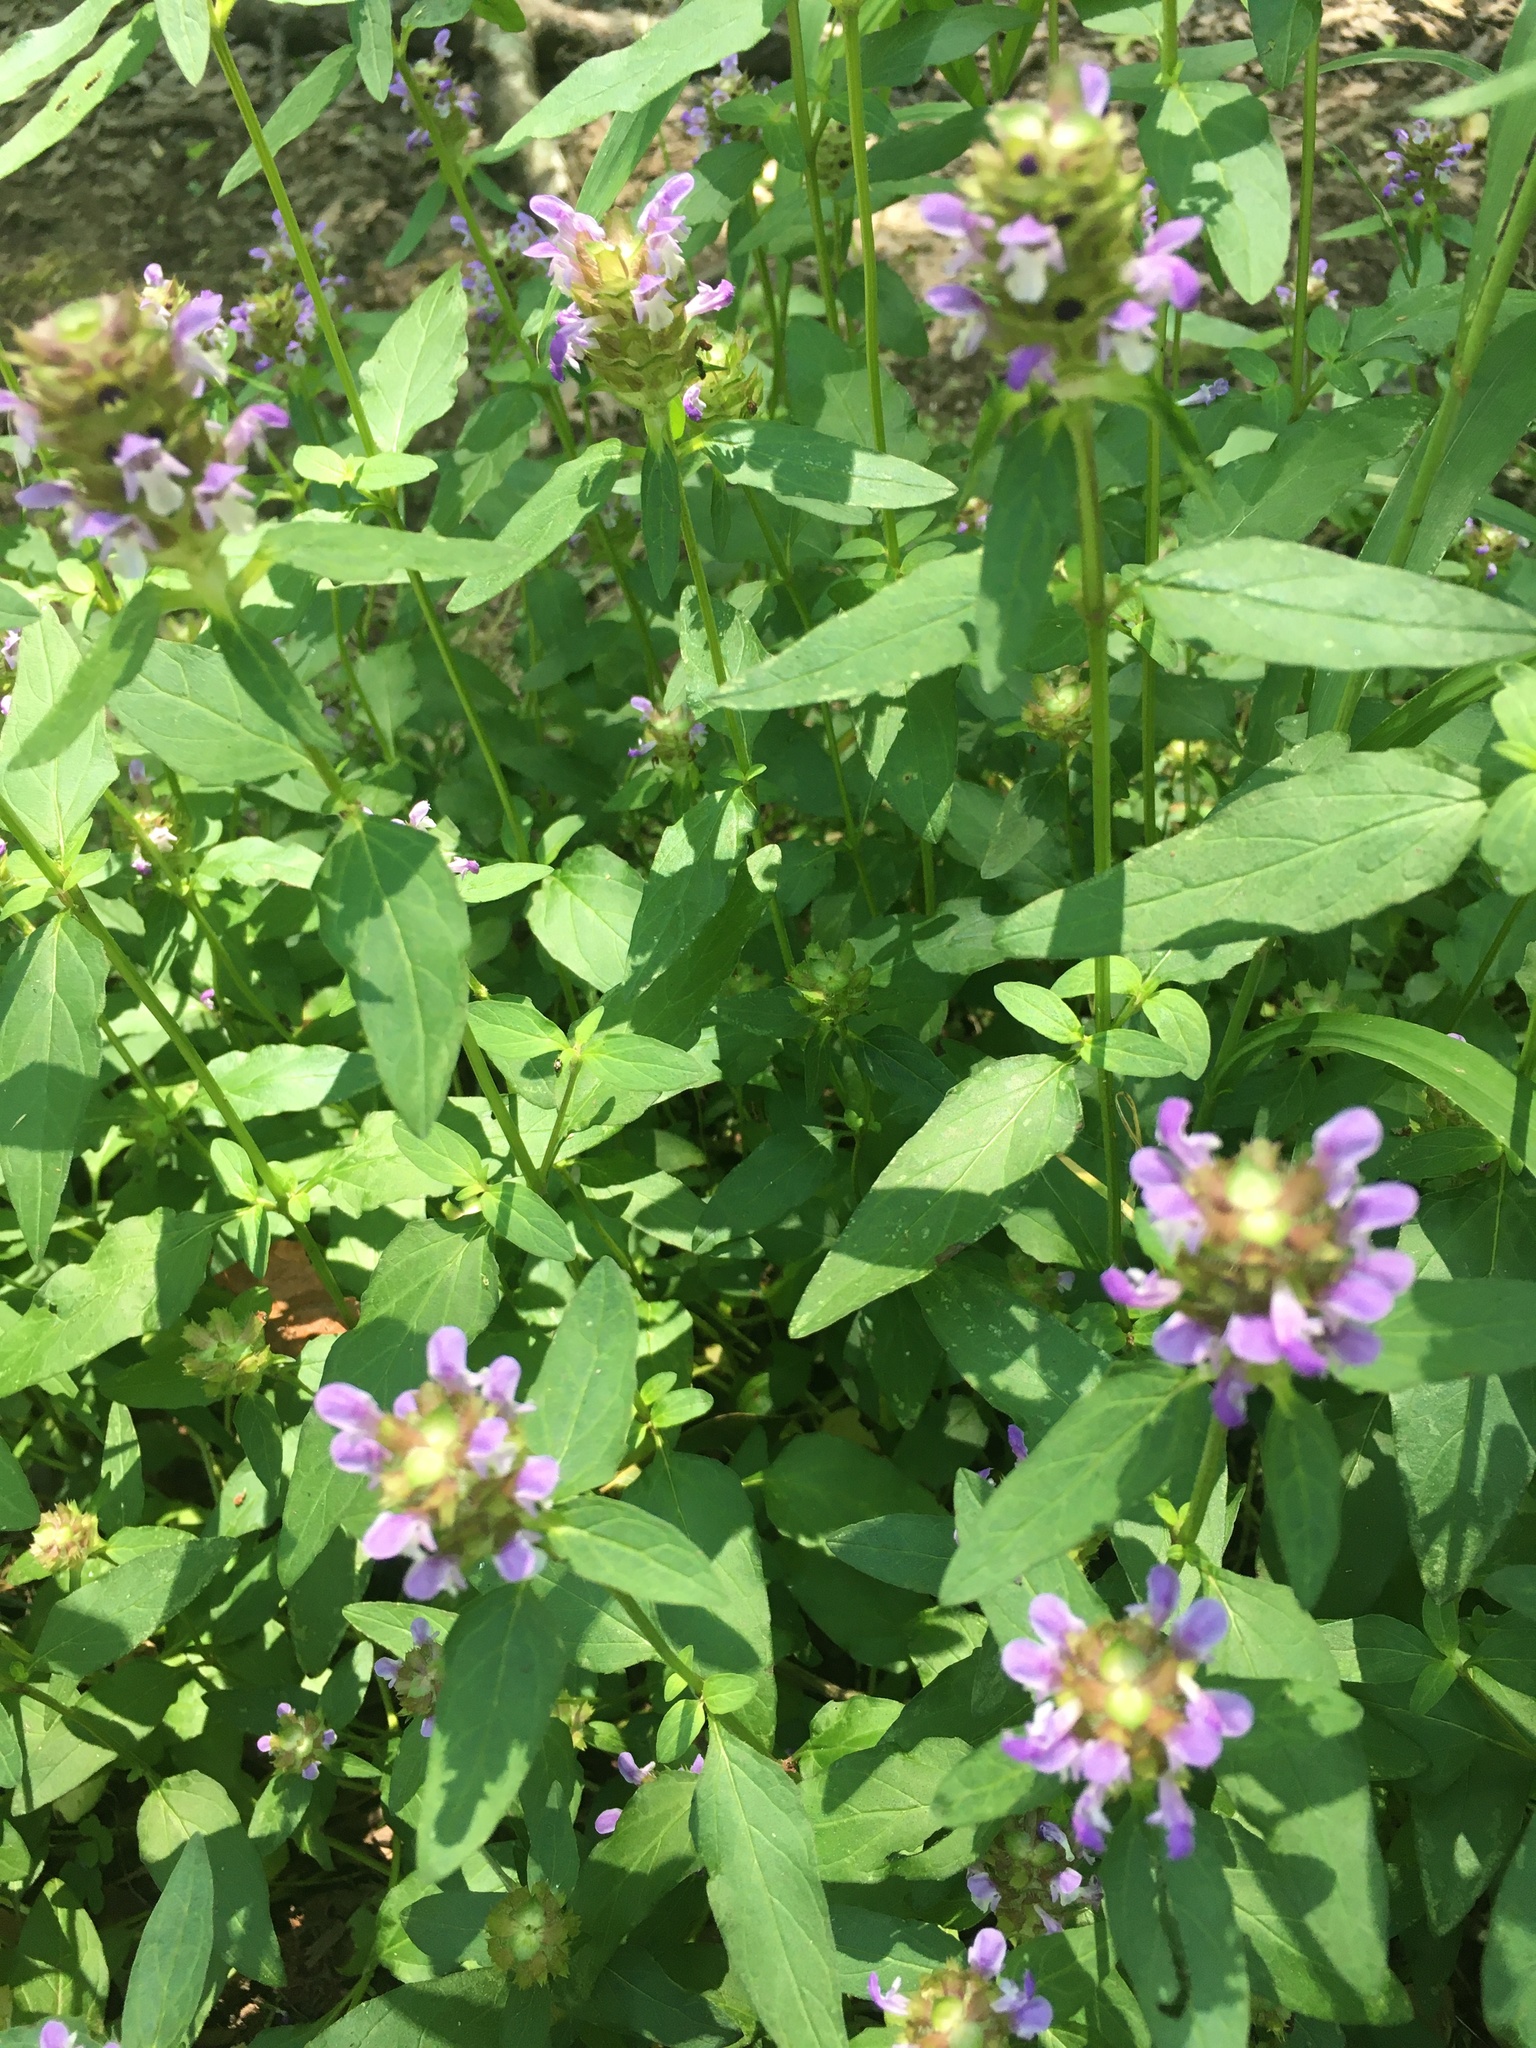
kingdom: Plantae
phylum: Tracheophyta
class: Magnoliopsida
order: Lamiales
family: Lamiaceae
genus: Prunella
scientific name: Prunella vulgaris
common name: Heal-all
